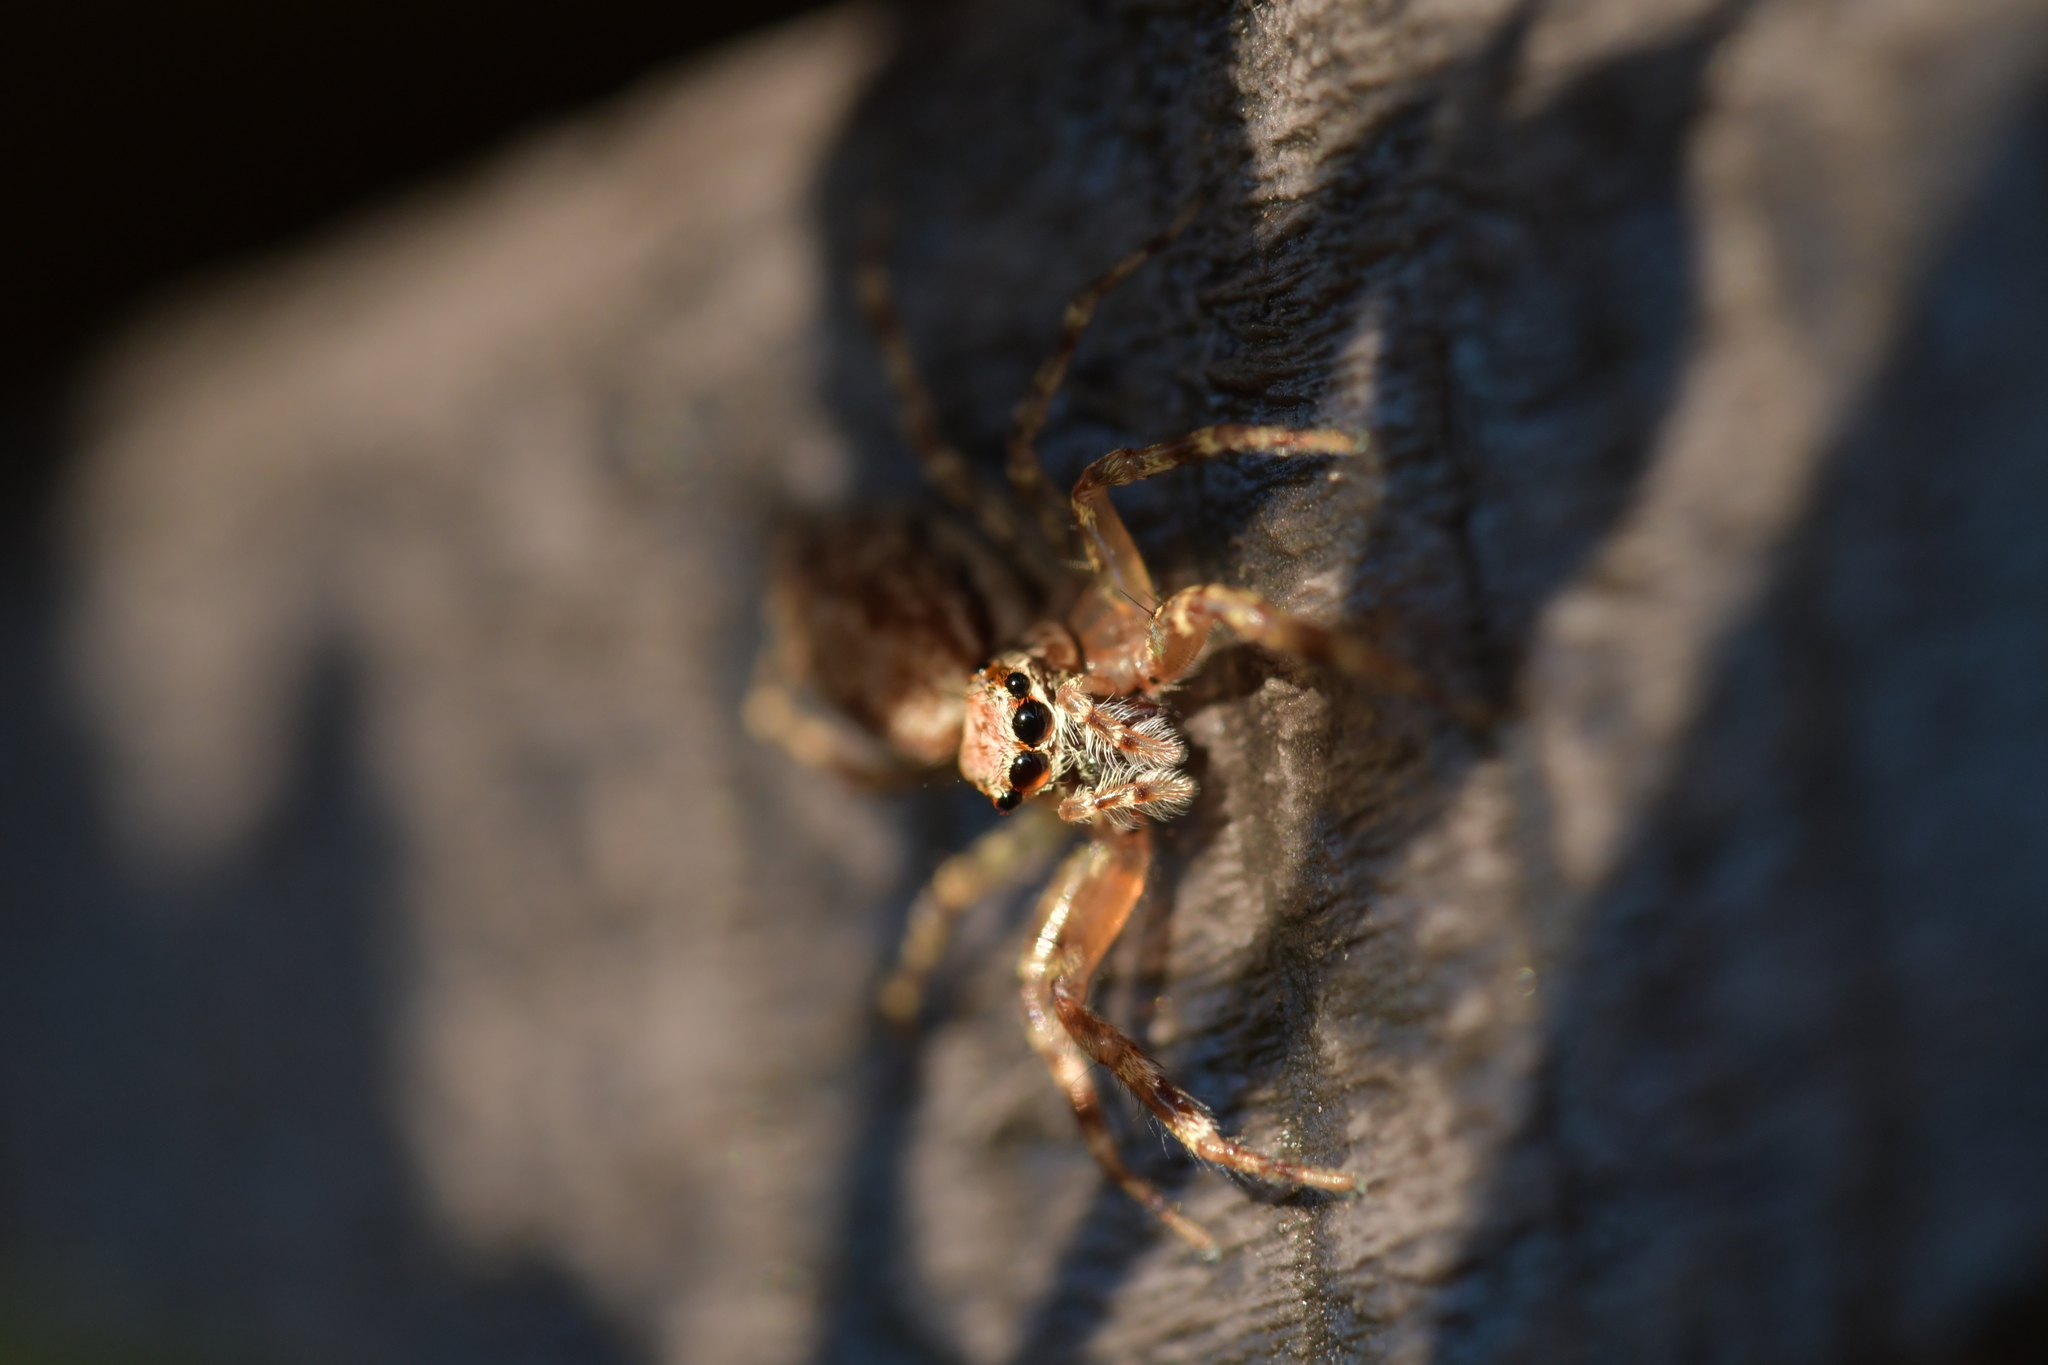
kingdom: Animalia
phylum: Arthropoda
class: Arachnida
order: Araneae
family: Salticidae
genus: Helpis
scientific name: Helpis minitabunda
